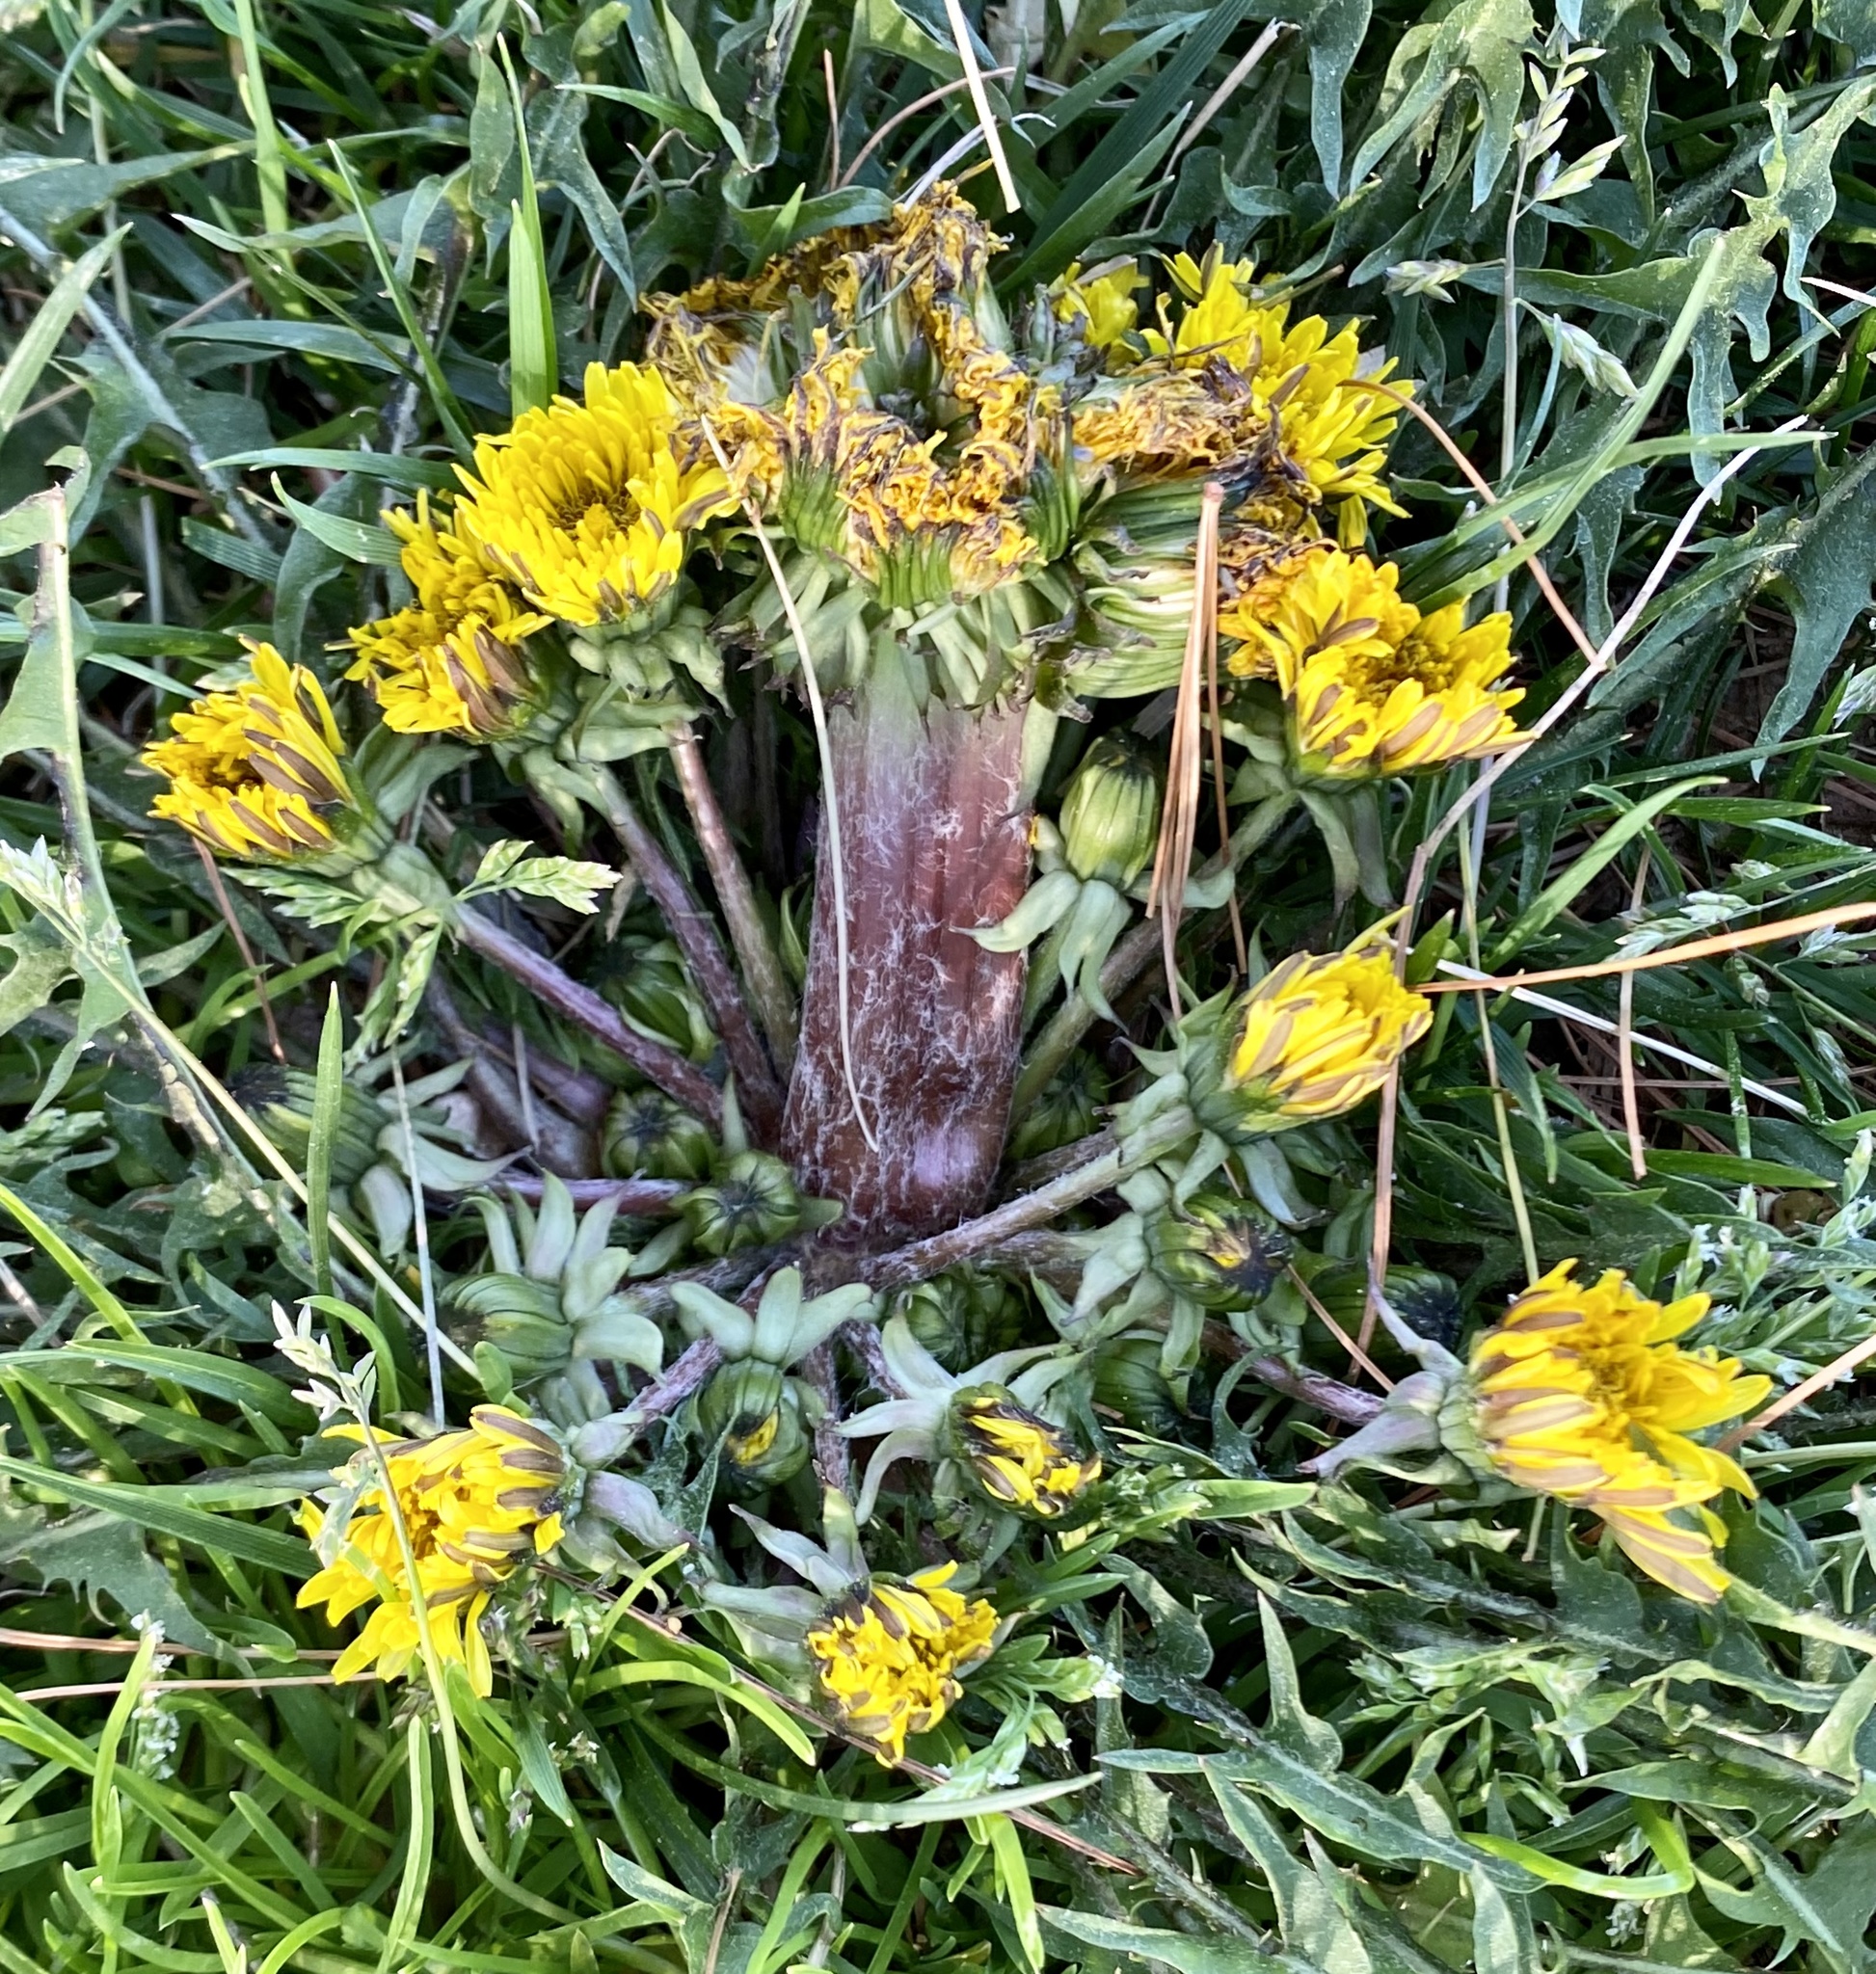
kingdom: Plantae
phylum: Tracheophyta
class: Magnoliopsida
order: Asterales
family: Asteraceae
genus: Taraxacum
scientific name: Taraxacum officinale
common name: Common dandelion
